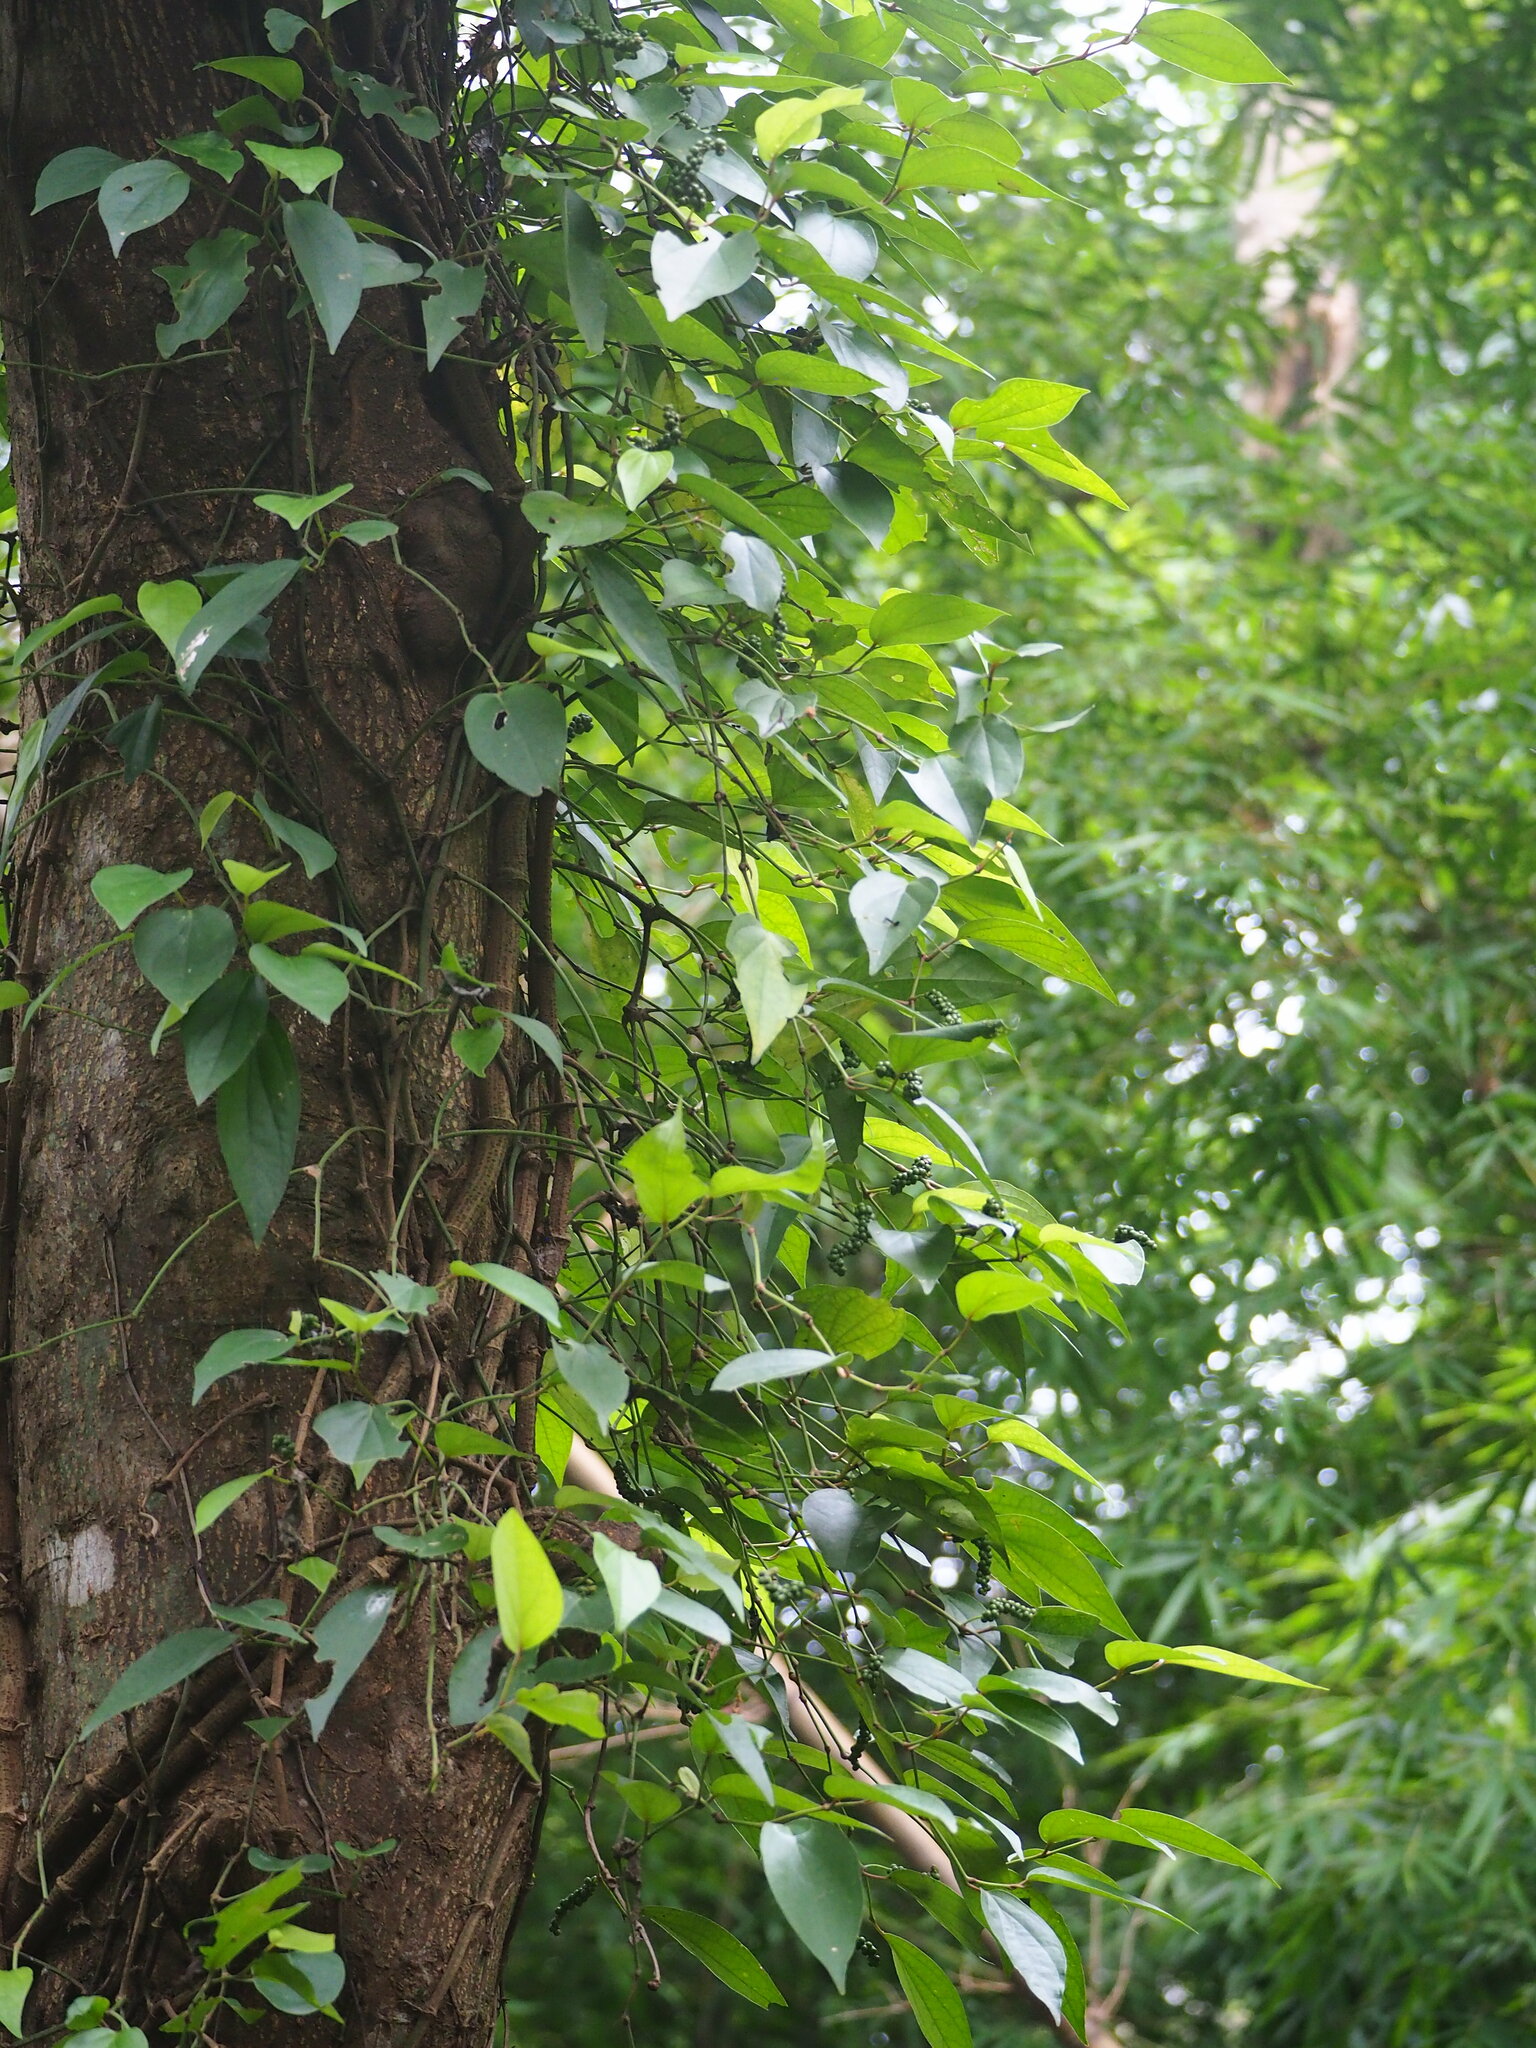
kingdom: Plantae
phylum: Tracheophyta
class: Magnoliopsida
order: Piperales
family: Piperaceae
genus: Piper
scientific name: Piper kadsura
